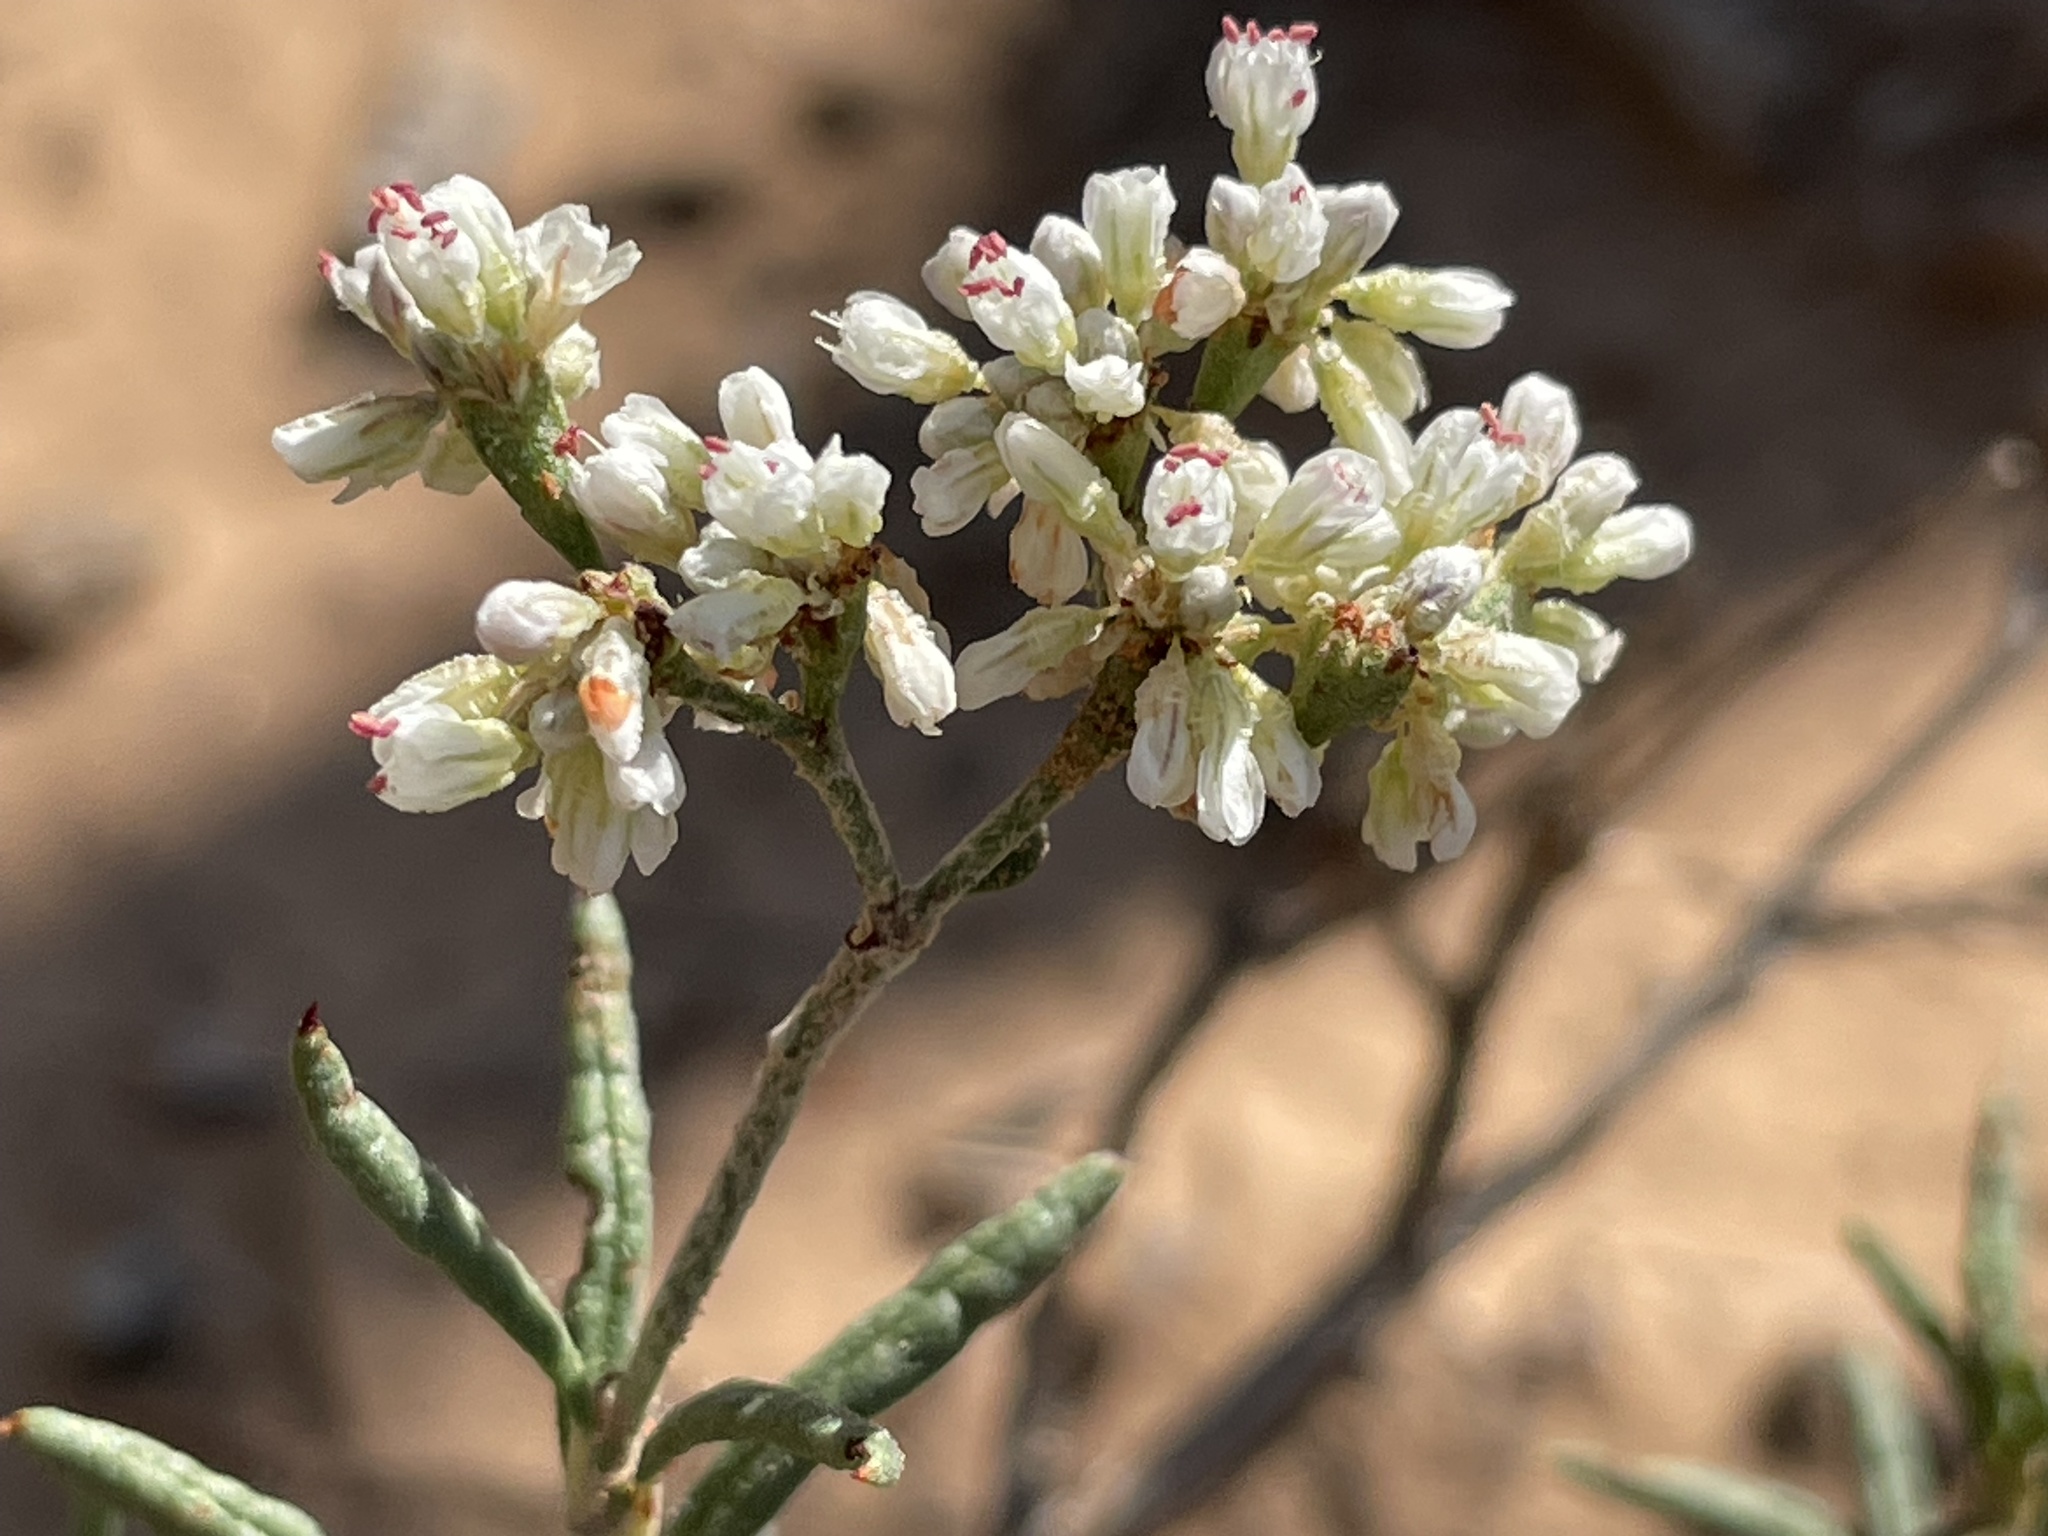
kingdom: Plantae
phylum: Tracheophyta
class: Magnoliopsida
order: Caryophyllales
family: Polygonaceae
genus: Eriogonum
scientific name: Eriogonum microtheca
